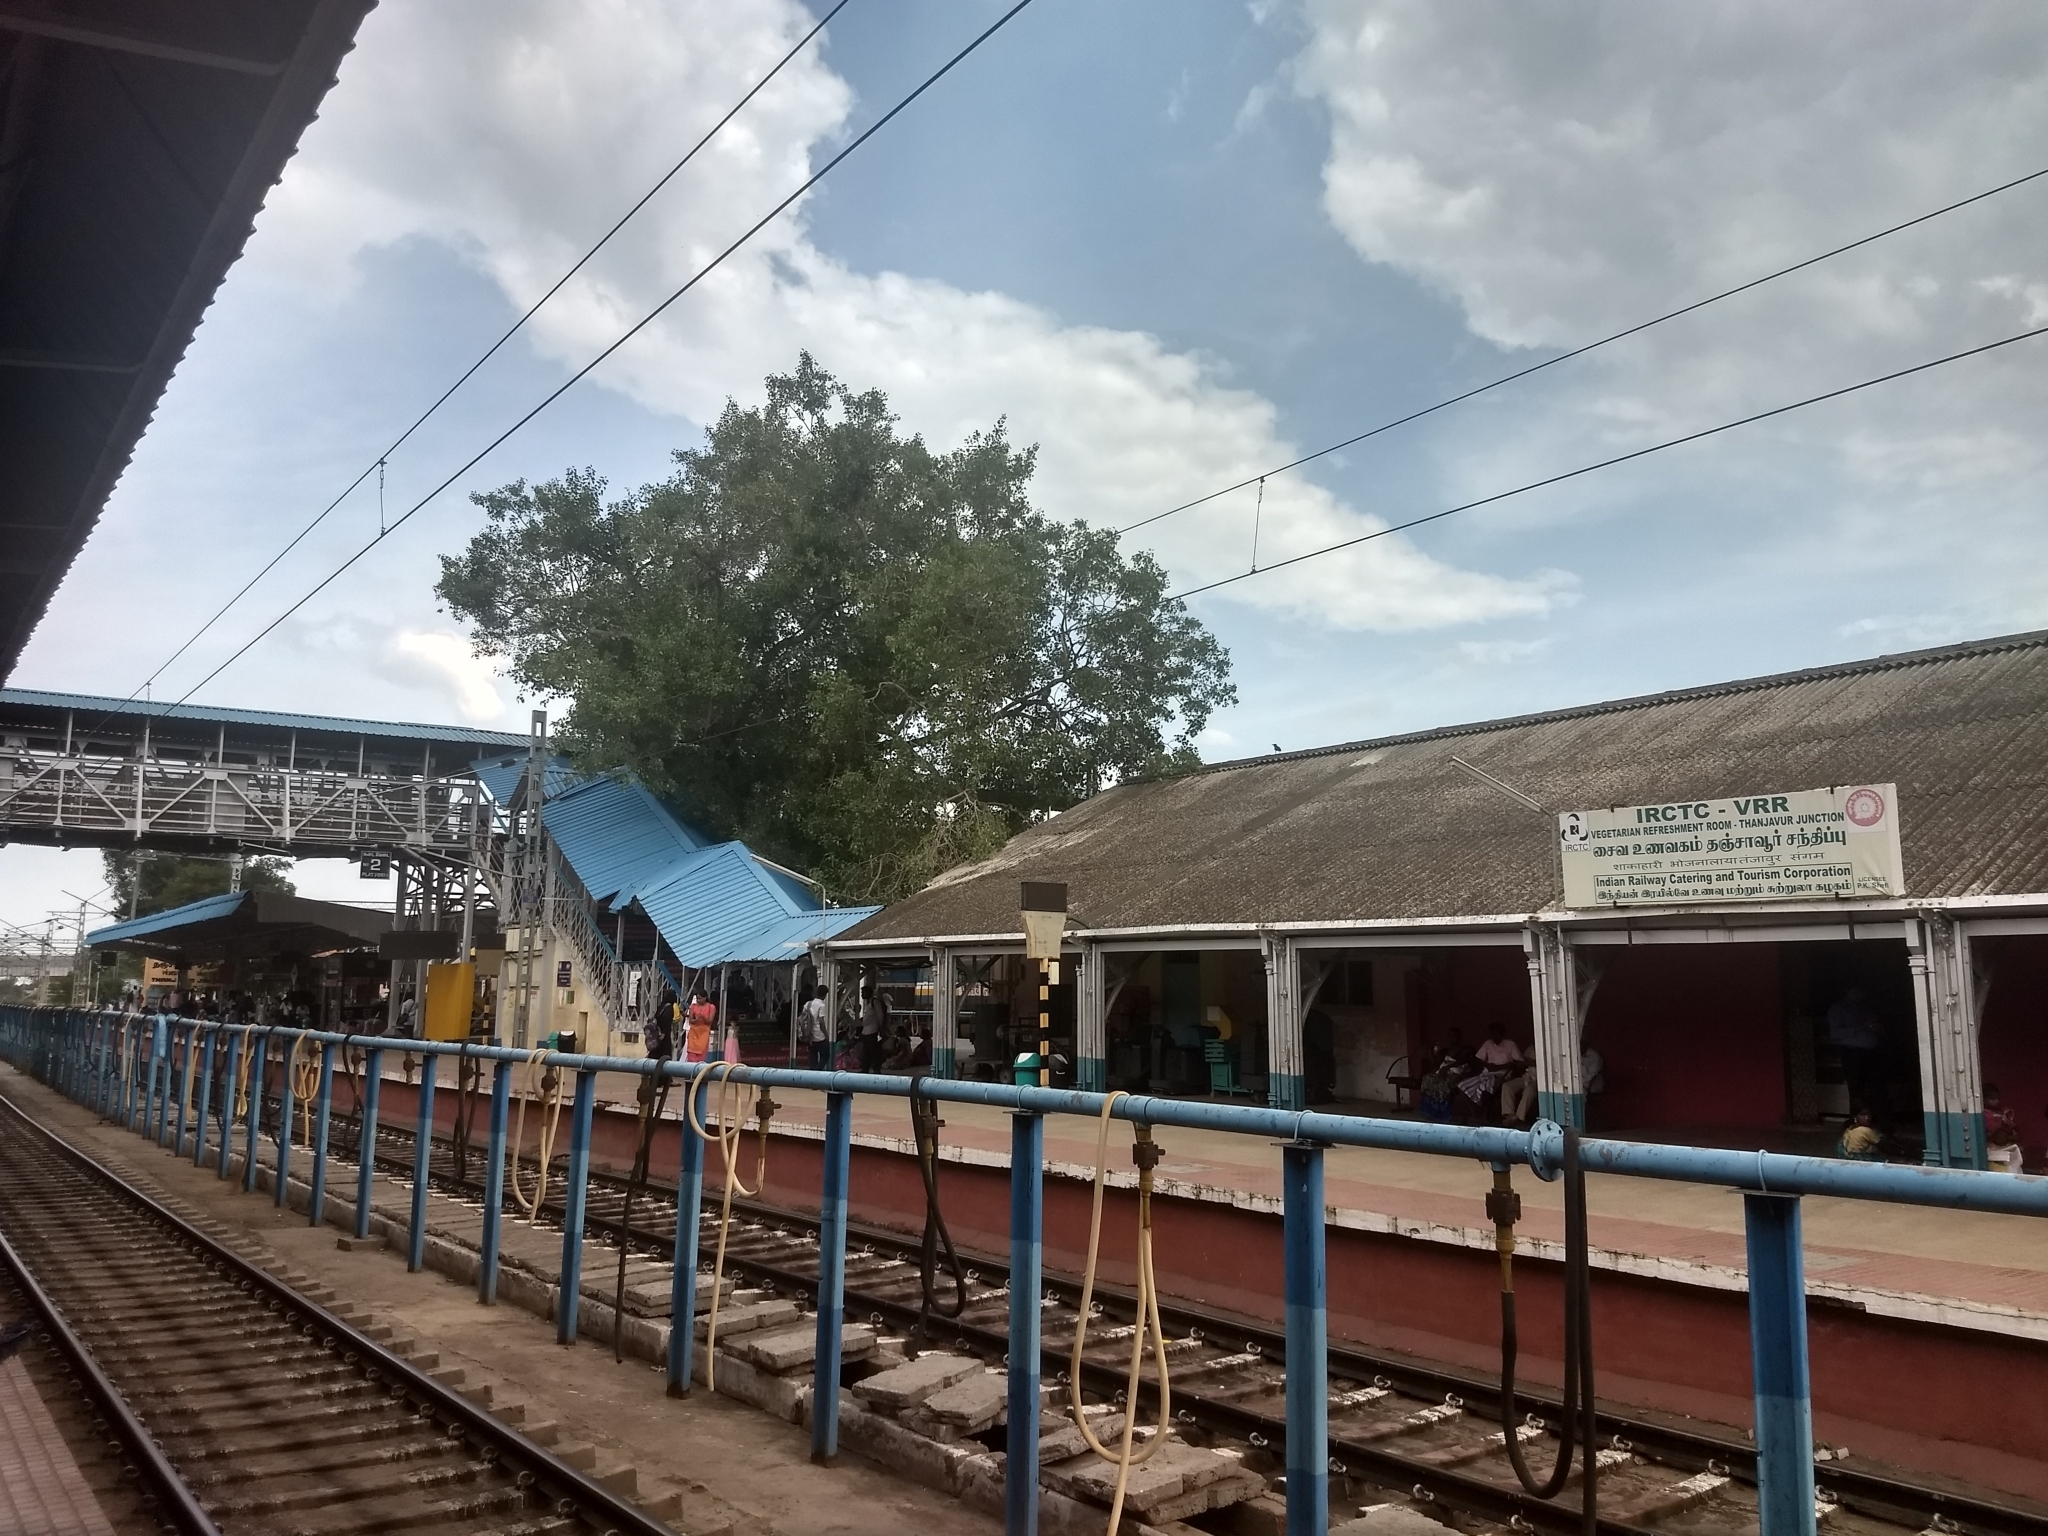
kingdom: Plantae
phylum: Tracheophyta
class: Magnoliopsida
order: Rosales
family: Moraceae
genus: Ficus
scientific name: Ficus religiosa
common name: Bodhi tree
